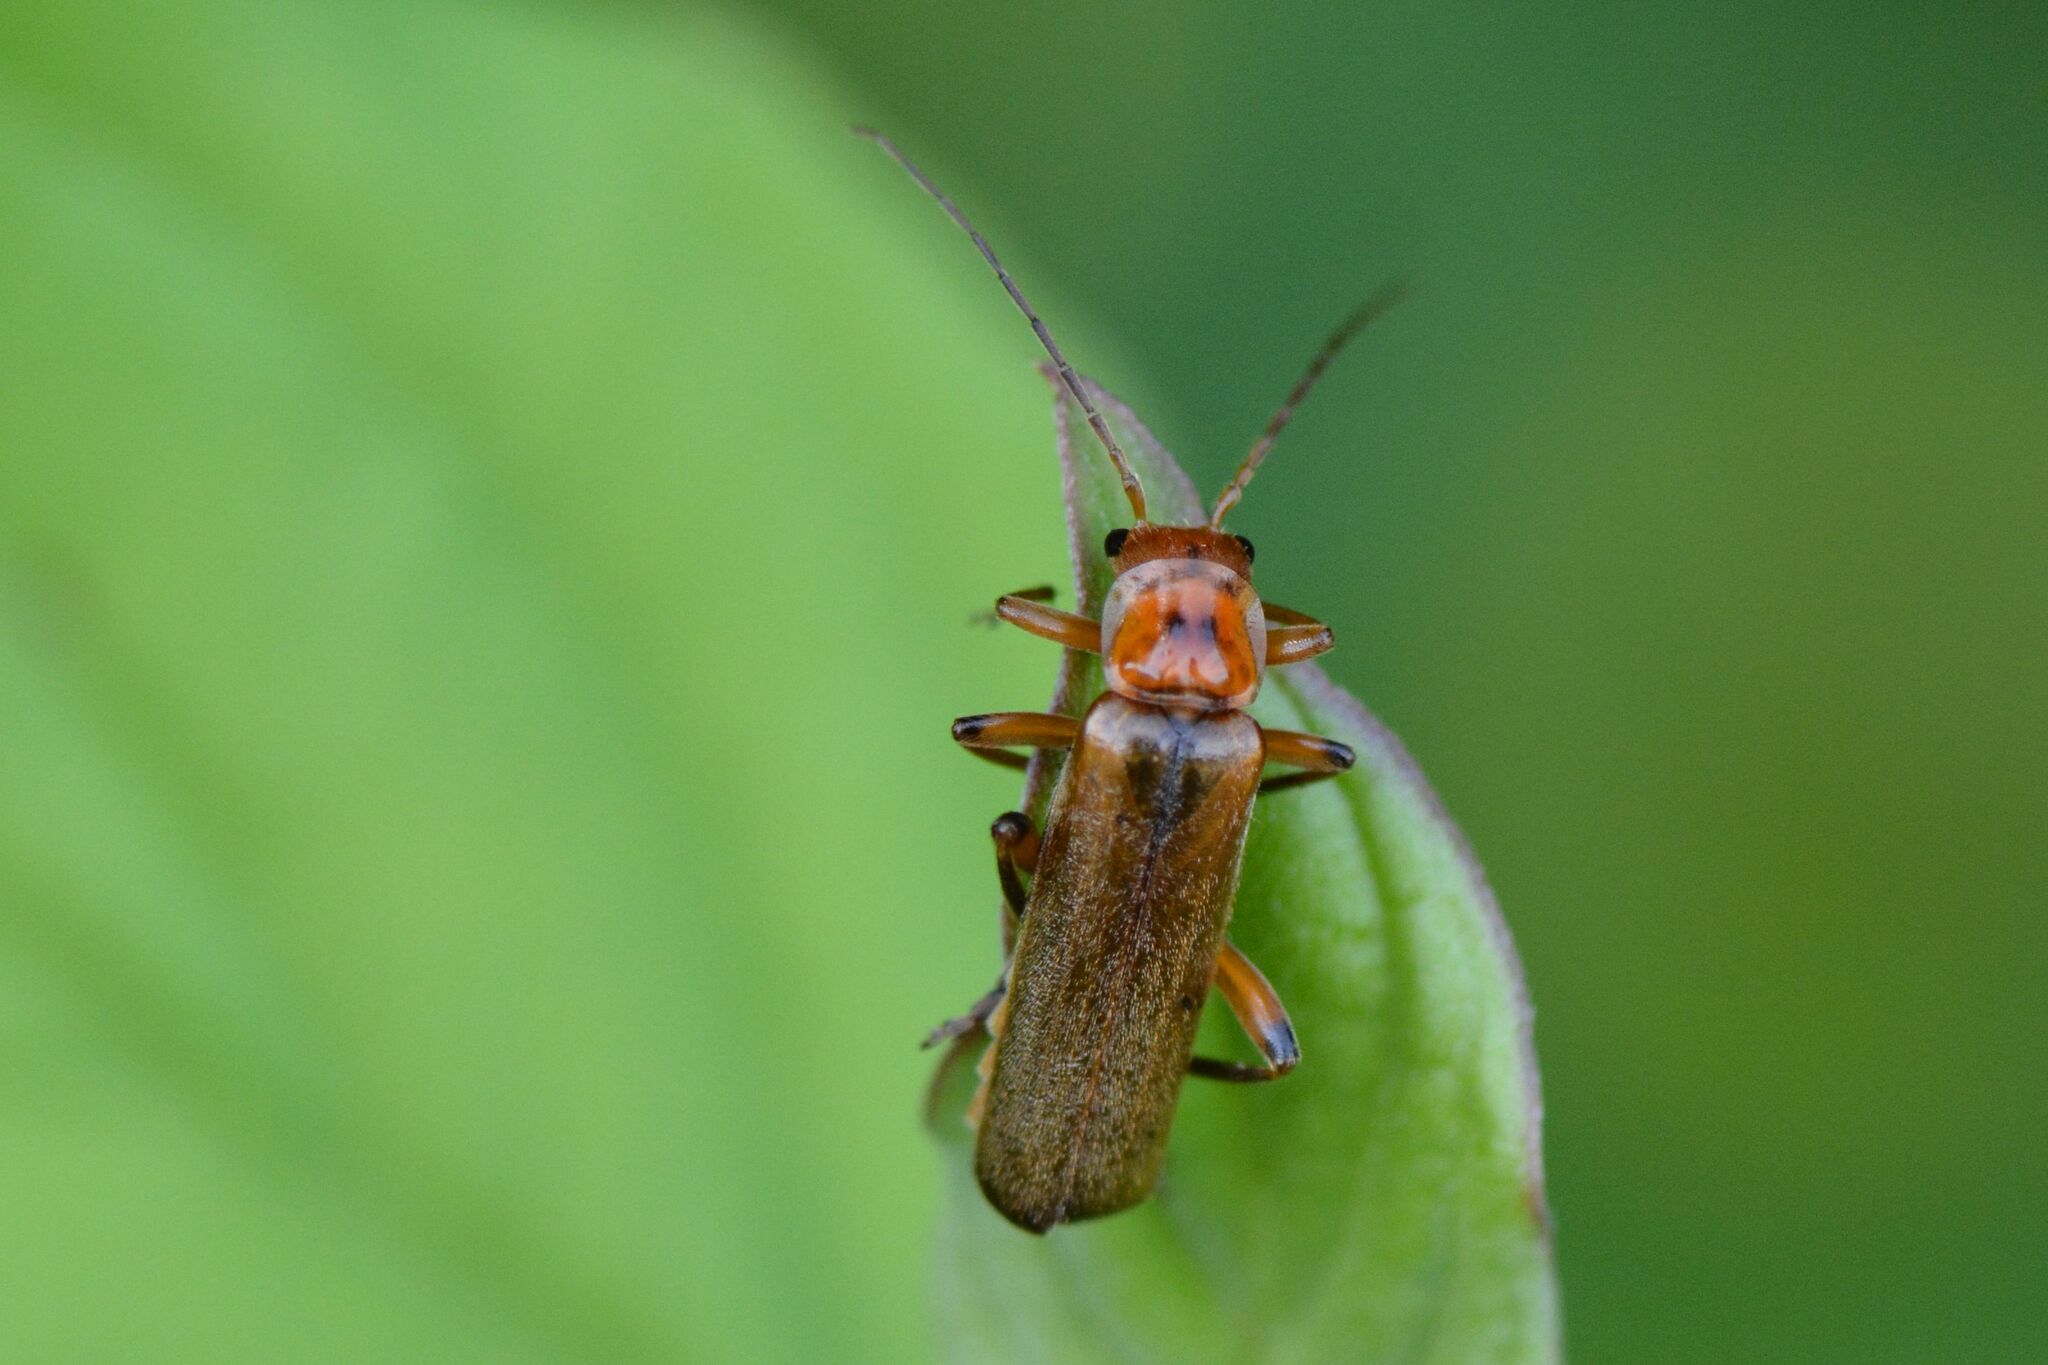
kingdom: Animalia
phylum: Arthropoda
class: Insecta
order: Coleoptera
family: Cantharidae
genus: Metacantharis
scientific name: Metacantharis discoidea
